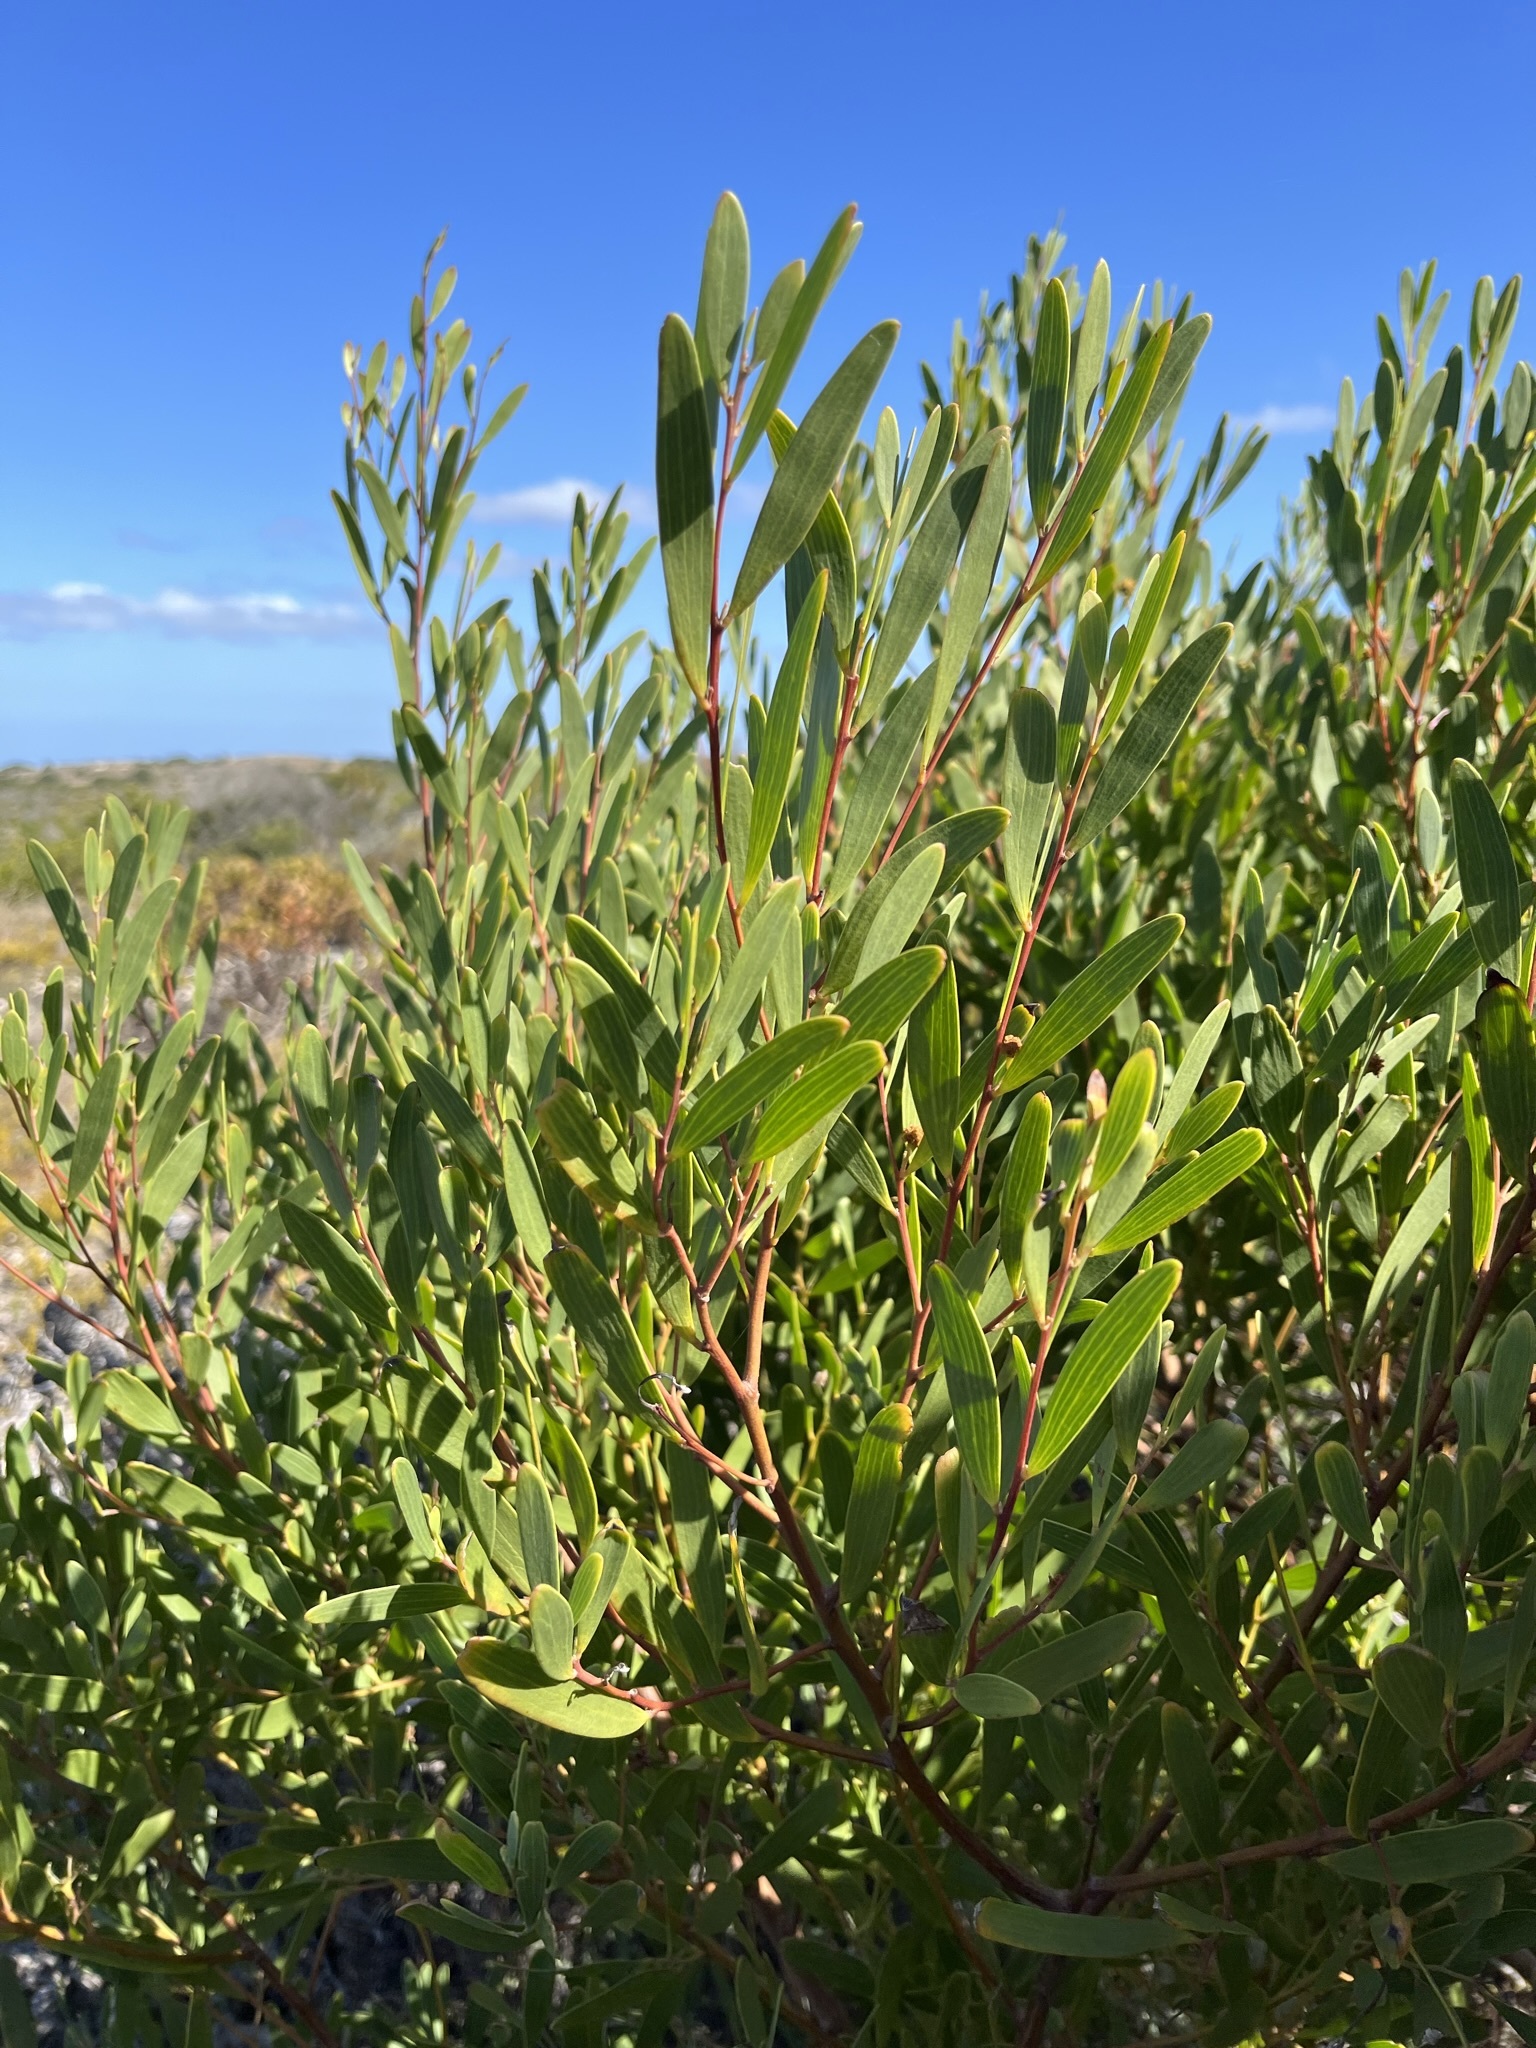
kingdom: Plantae
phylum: Tracheophyta
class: Magnoliopsida
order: Fabales
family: Fabaceae
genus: Acacia
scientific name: Acacia cyclops
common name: Coastal wattle
